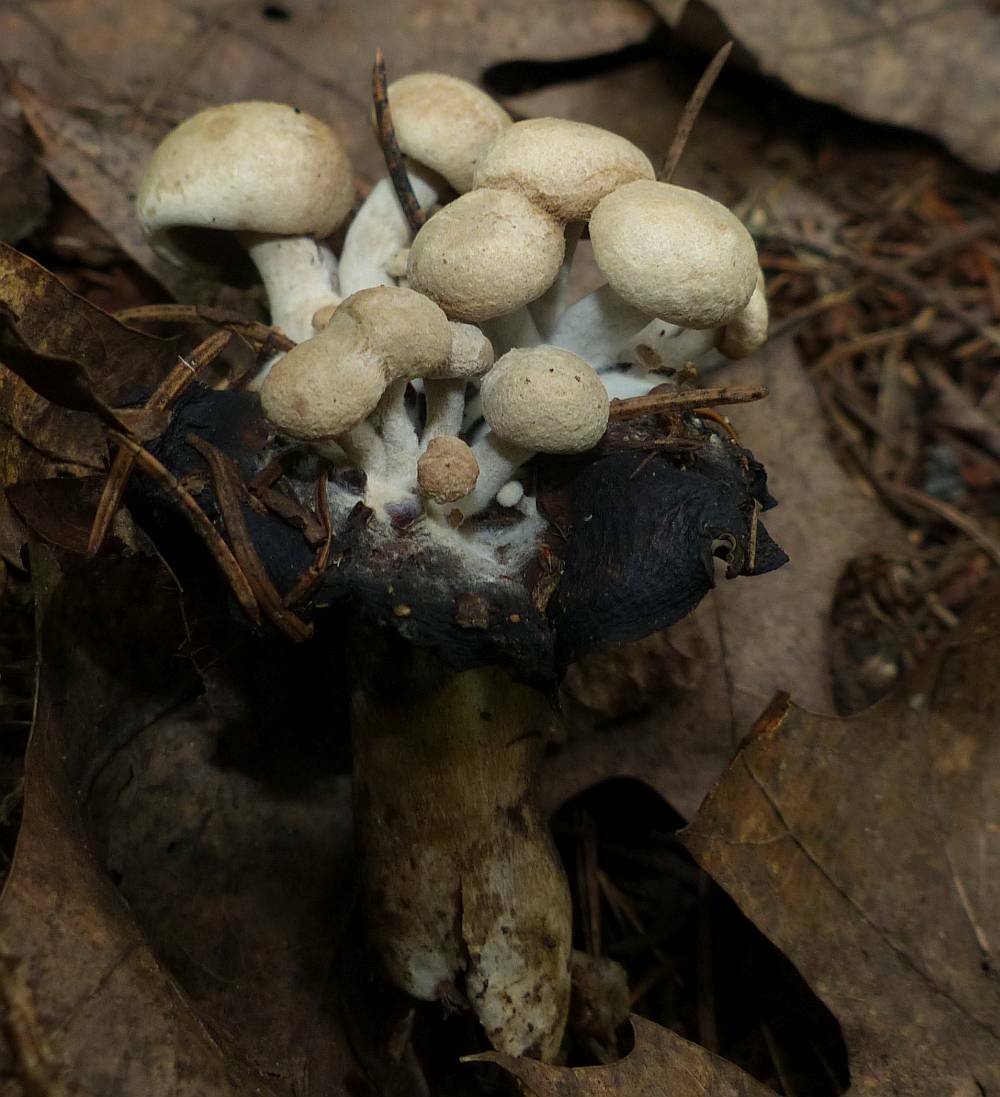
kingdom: Fungi
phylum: Basidiomycota
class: Agaricomycetes
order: Agaricales
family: Lyophyllaceae
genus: Asterophora
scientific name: Asterophora lycoperdoides
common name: Pick-a-back toadstool
